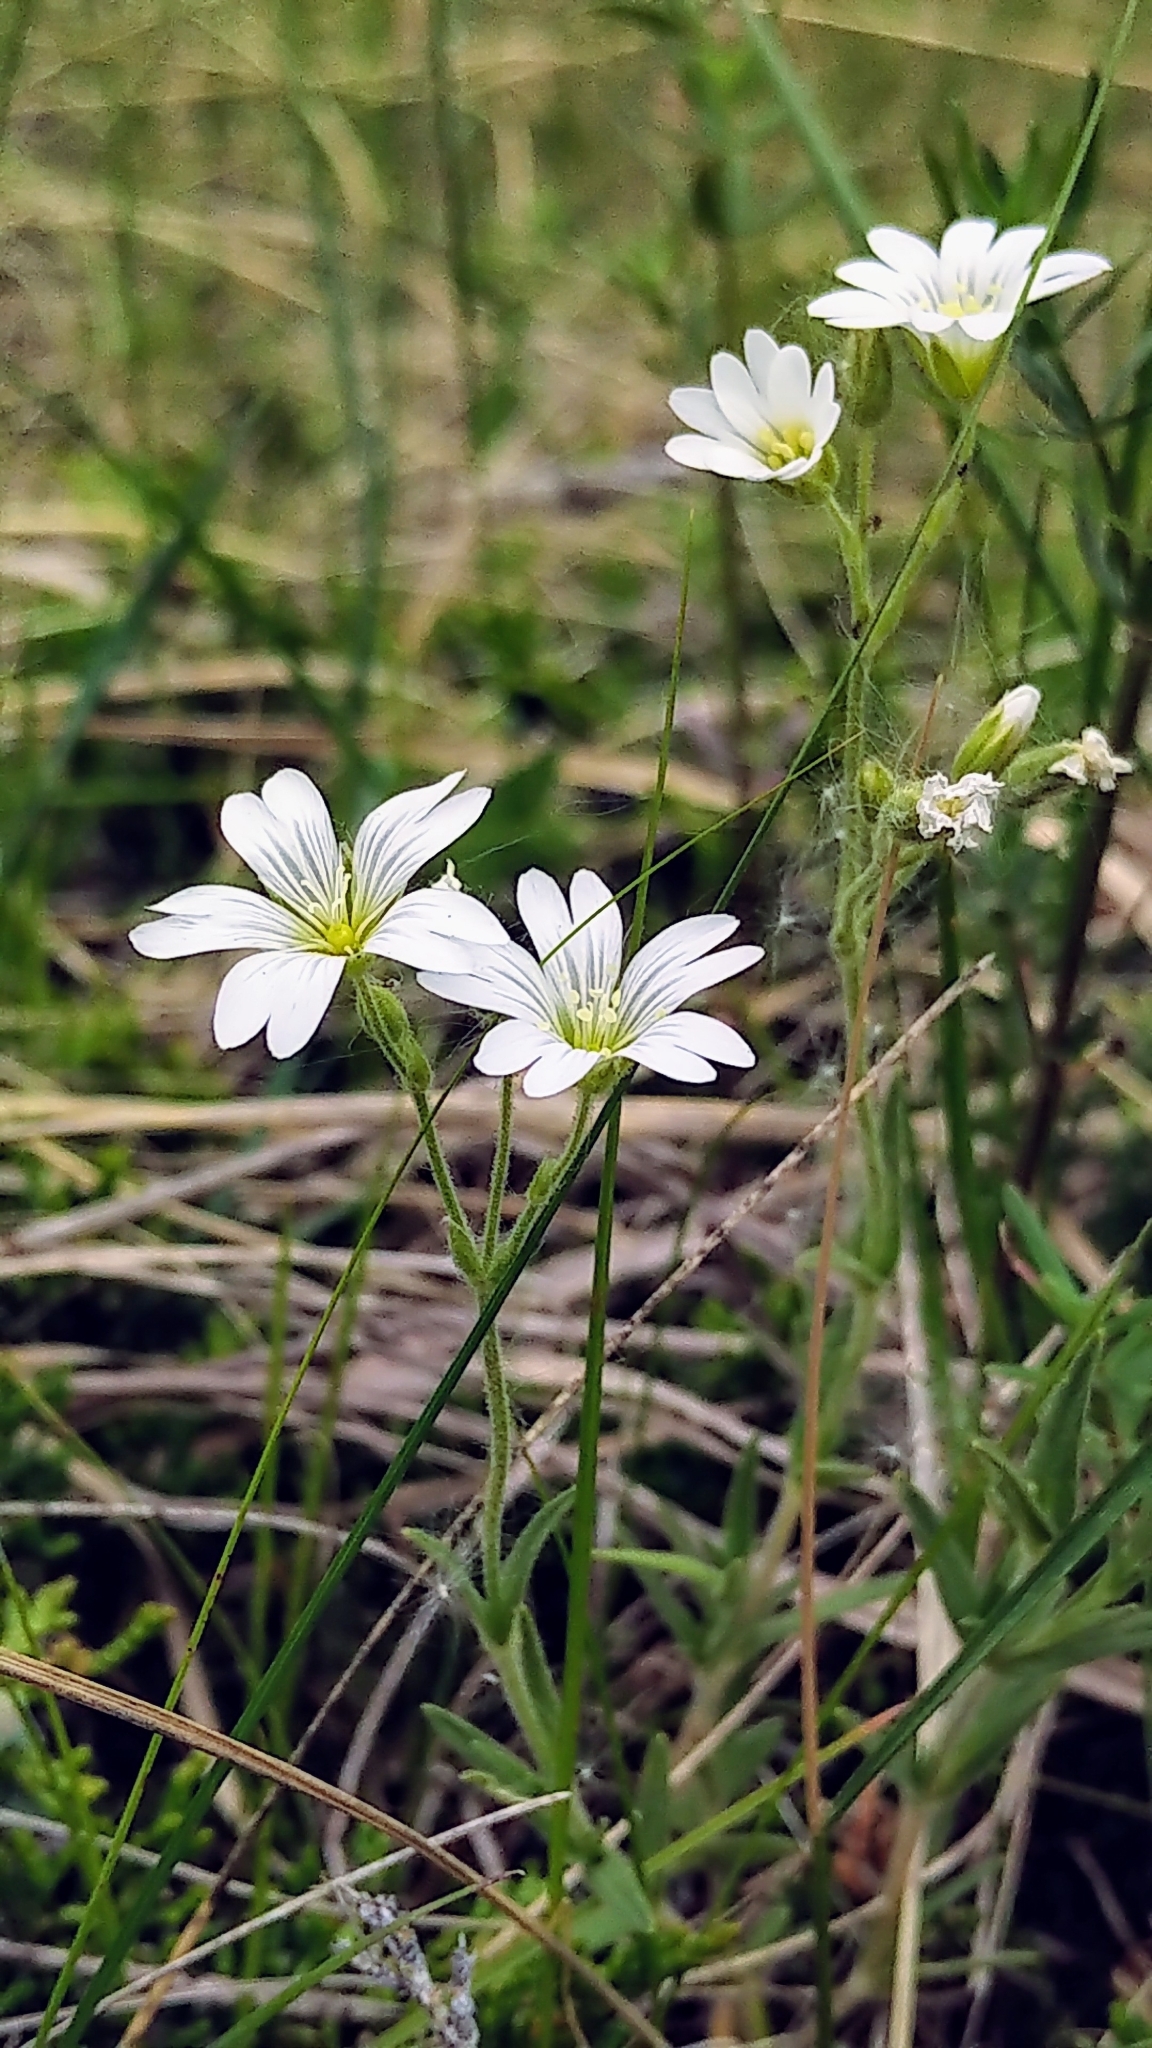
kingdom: Plantae
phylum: Tracheophyta
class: Magnoliopsida
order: Caryophyllales
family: Caryophyllaceae
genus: Cerastium
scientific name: Cerastium arvense
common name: Field mouse-ear
